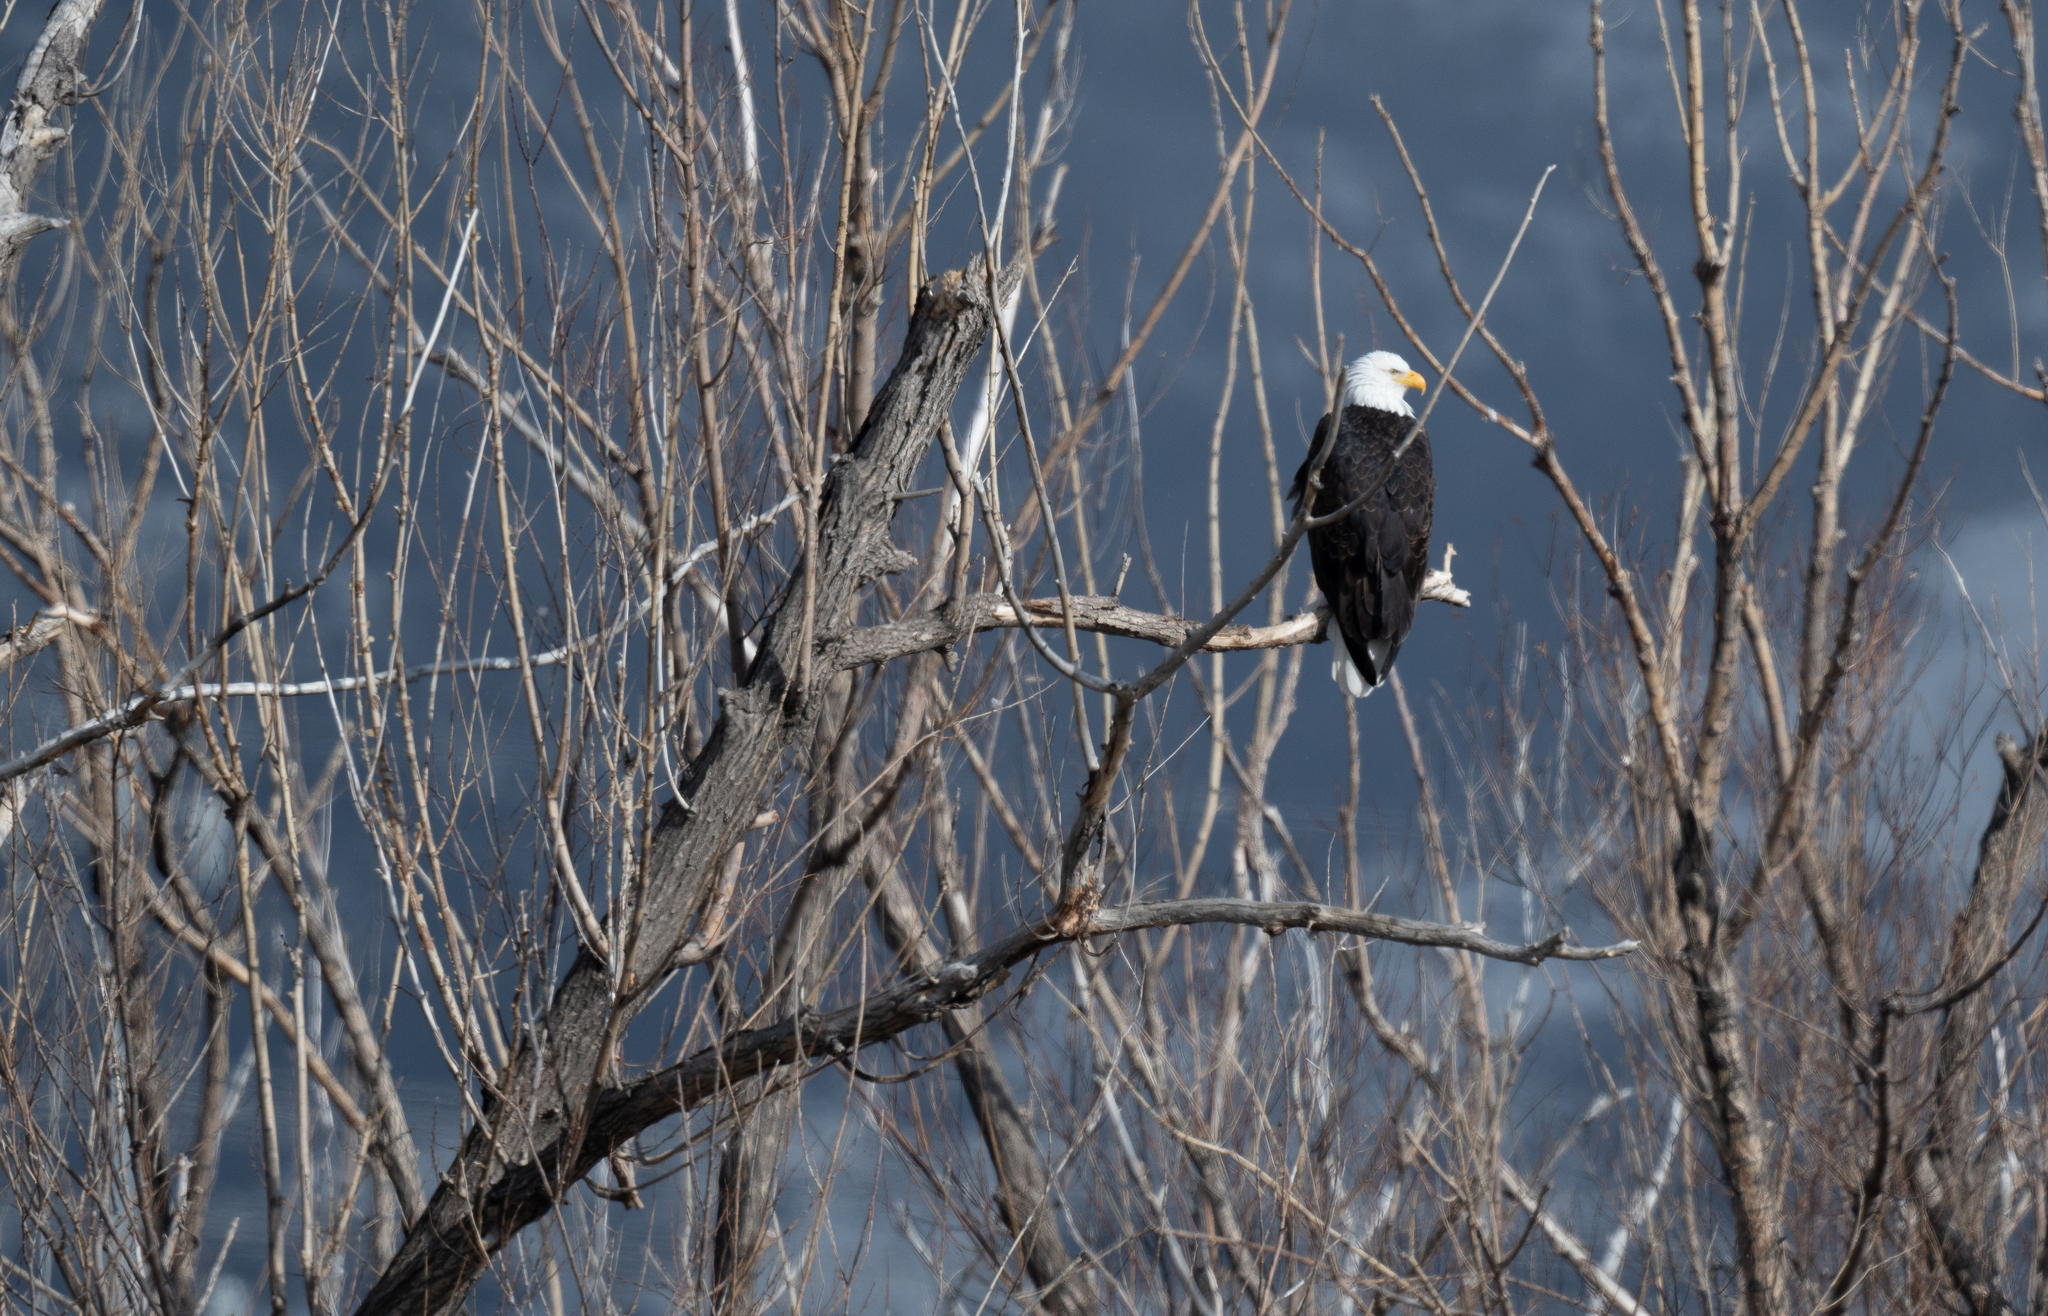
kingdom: Animalia
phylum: Chordata
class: Aves
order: Accipitriformes
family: Accipitridae
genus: Haliaeetus
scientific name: Haliaeetus leucocephalus
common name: Bald eagle
